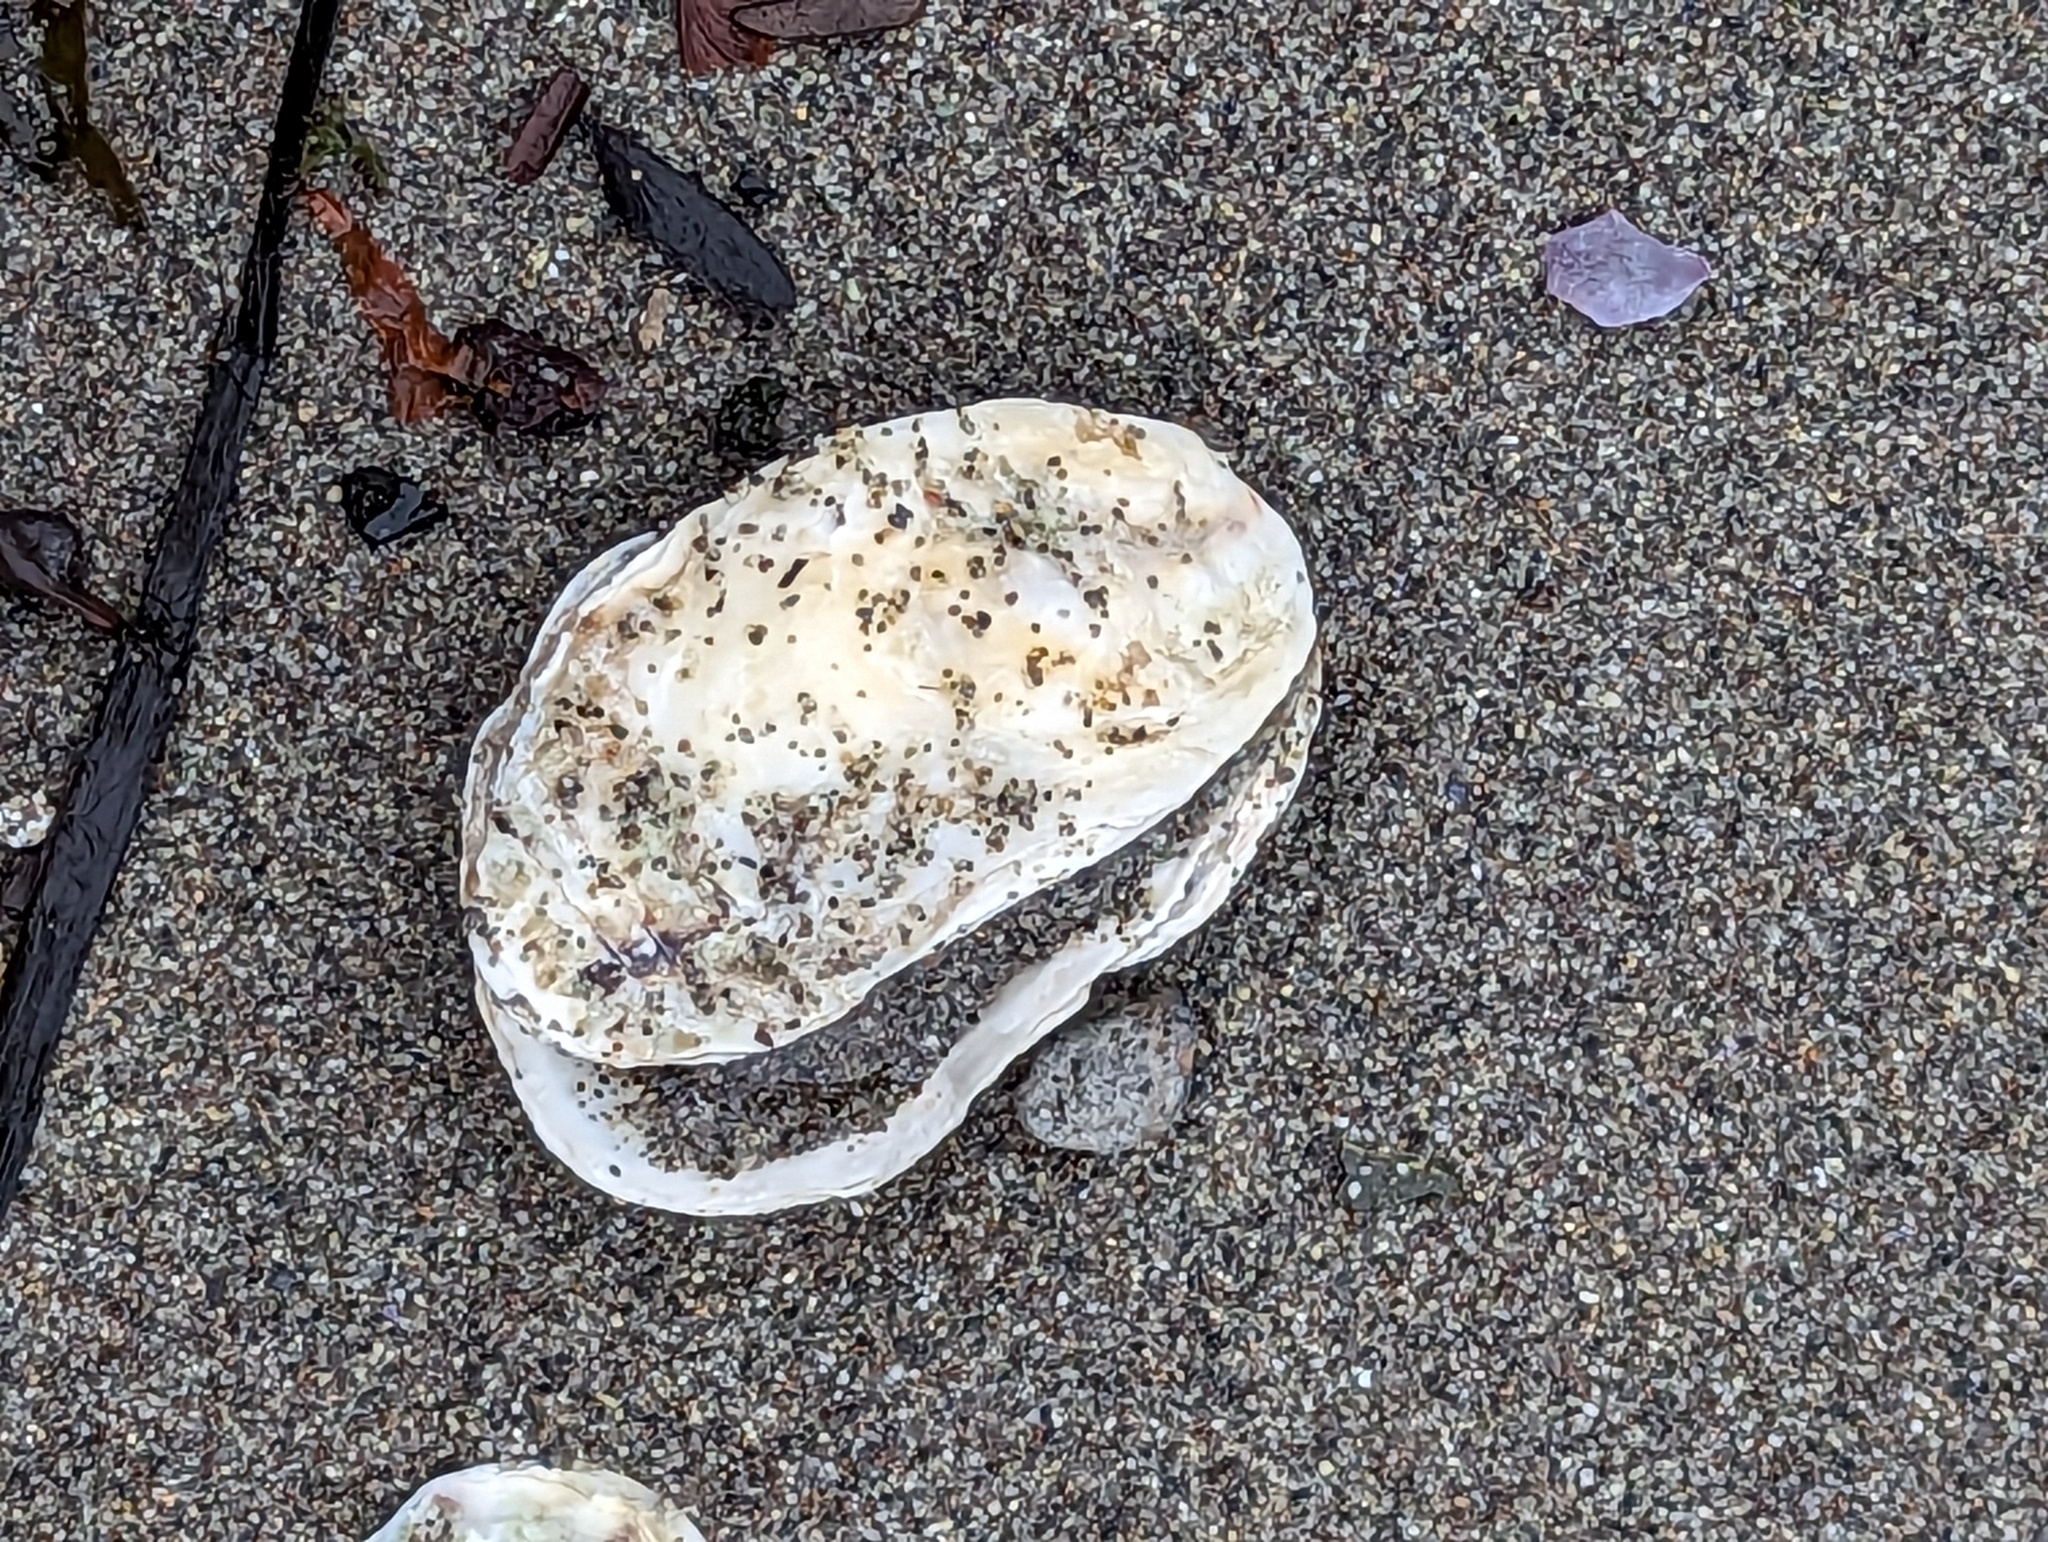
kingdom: Animalia
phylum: Mollusca
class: Bivalvia
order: Ostreida
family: Ostreidae
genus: Magallana
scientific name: Magallana gigas
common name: Pacific oyster
